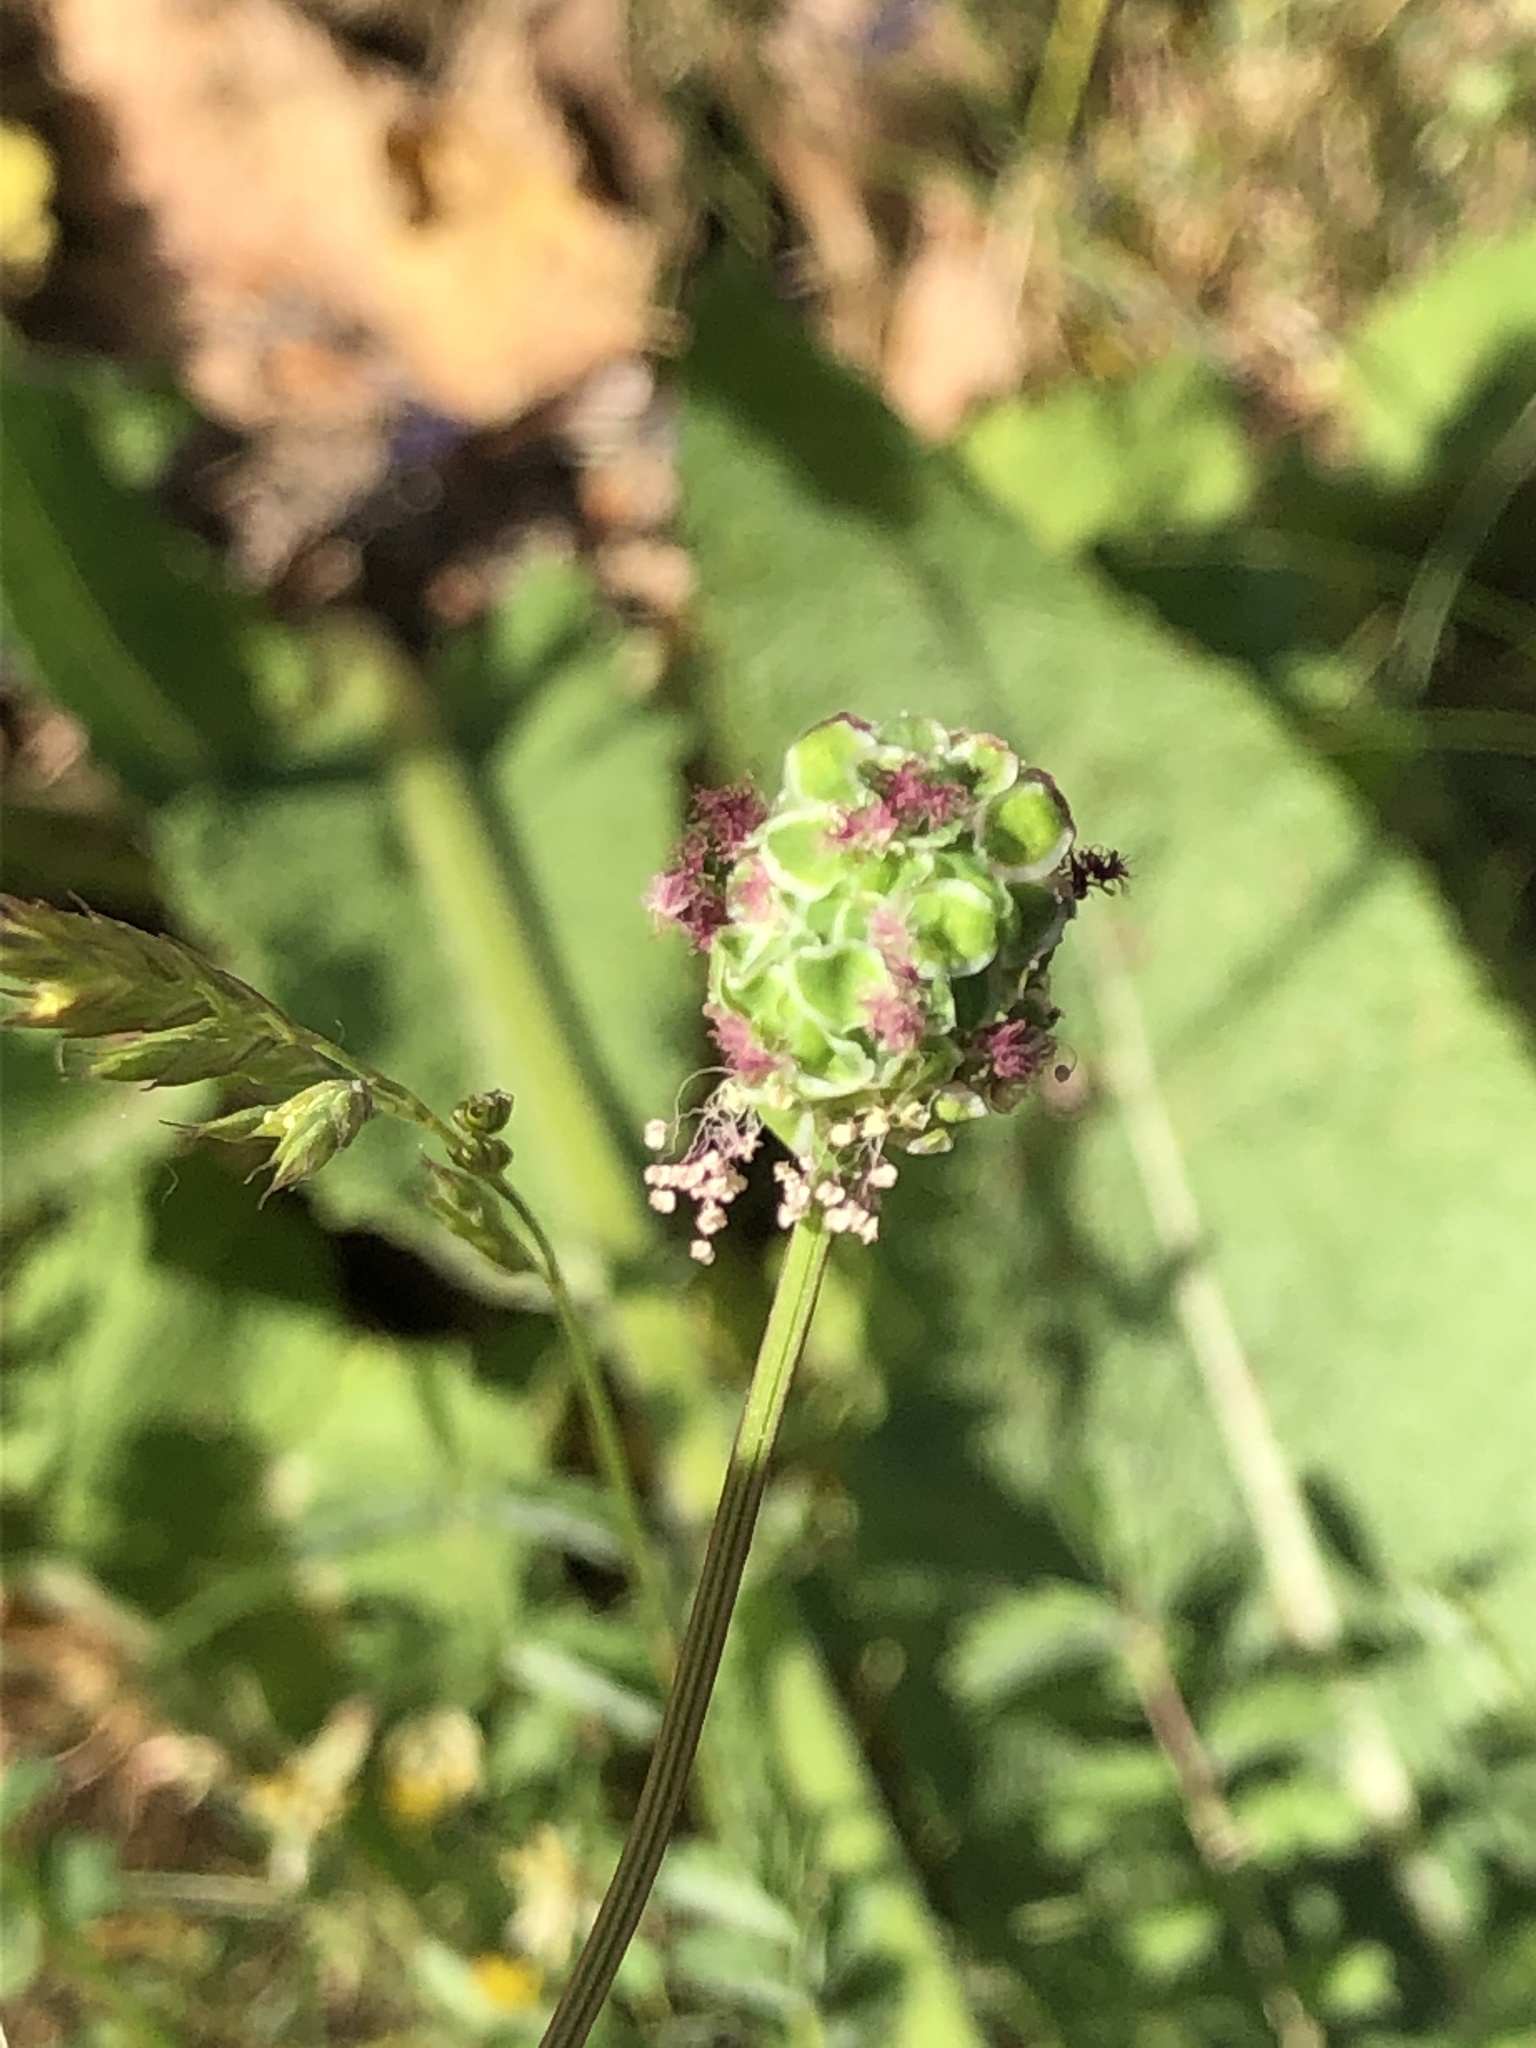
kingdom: Plantae
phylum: Tracheophyta
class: Magnoliopsida
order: Rosales
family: Rosaceae
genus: Poterium
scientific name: Poterium sanguisorba
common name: Salad burnet
